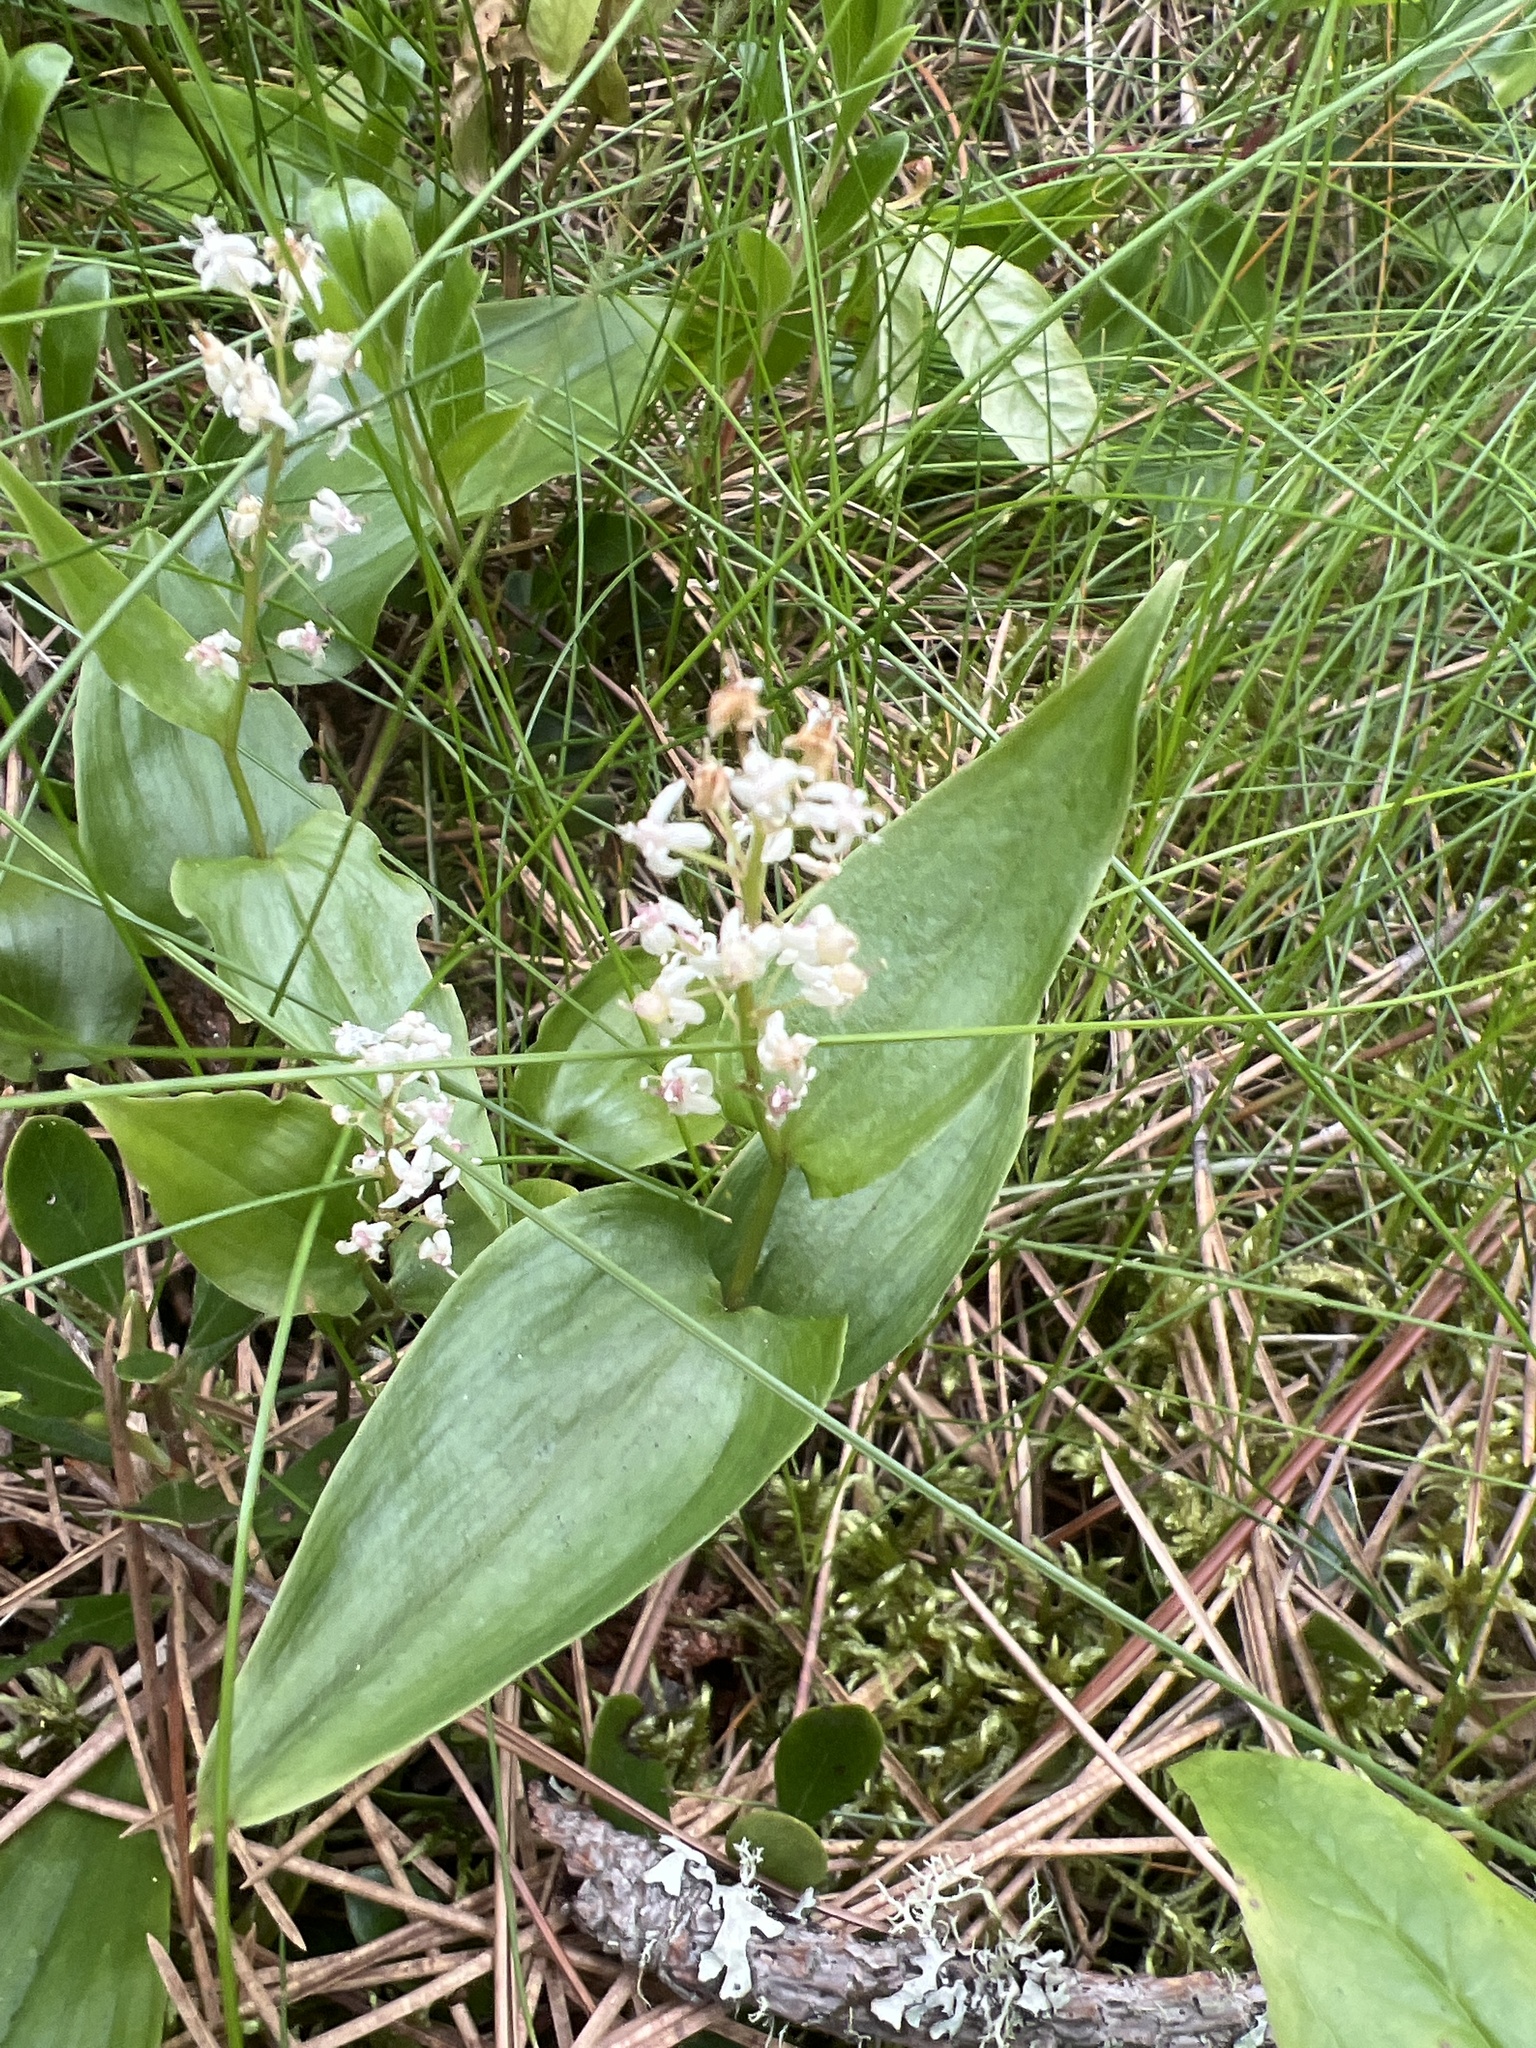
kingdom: Plantae
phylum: Tracheophyta
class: Liliopsida
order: Asparagales
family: Asparagaceae
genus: Maianthemum
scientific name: Maianthemum canadense
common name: False lily-of-the-valley
